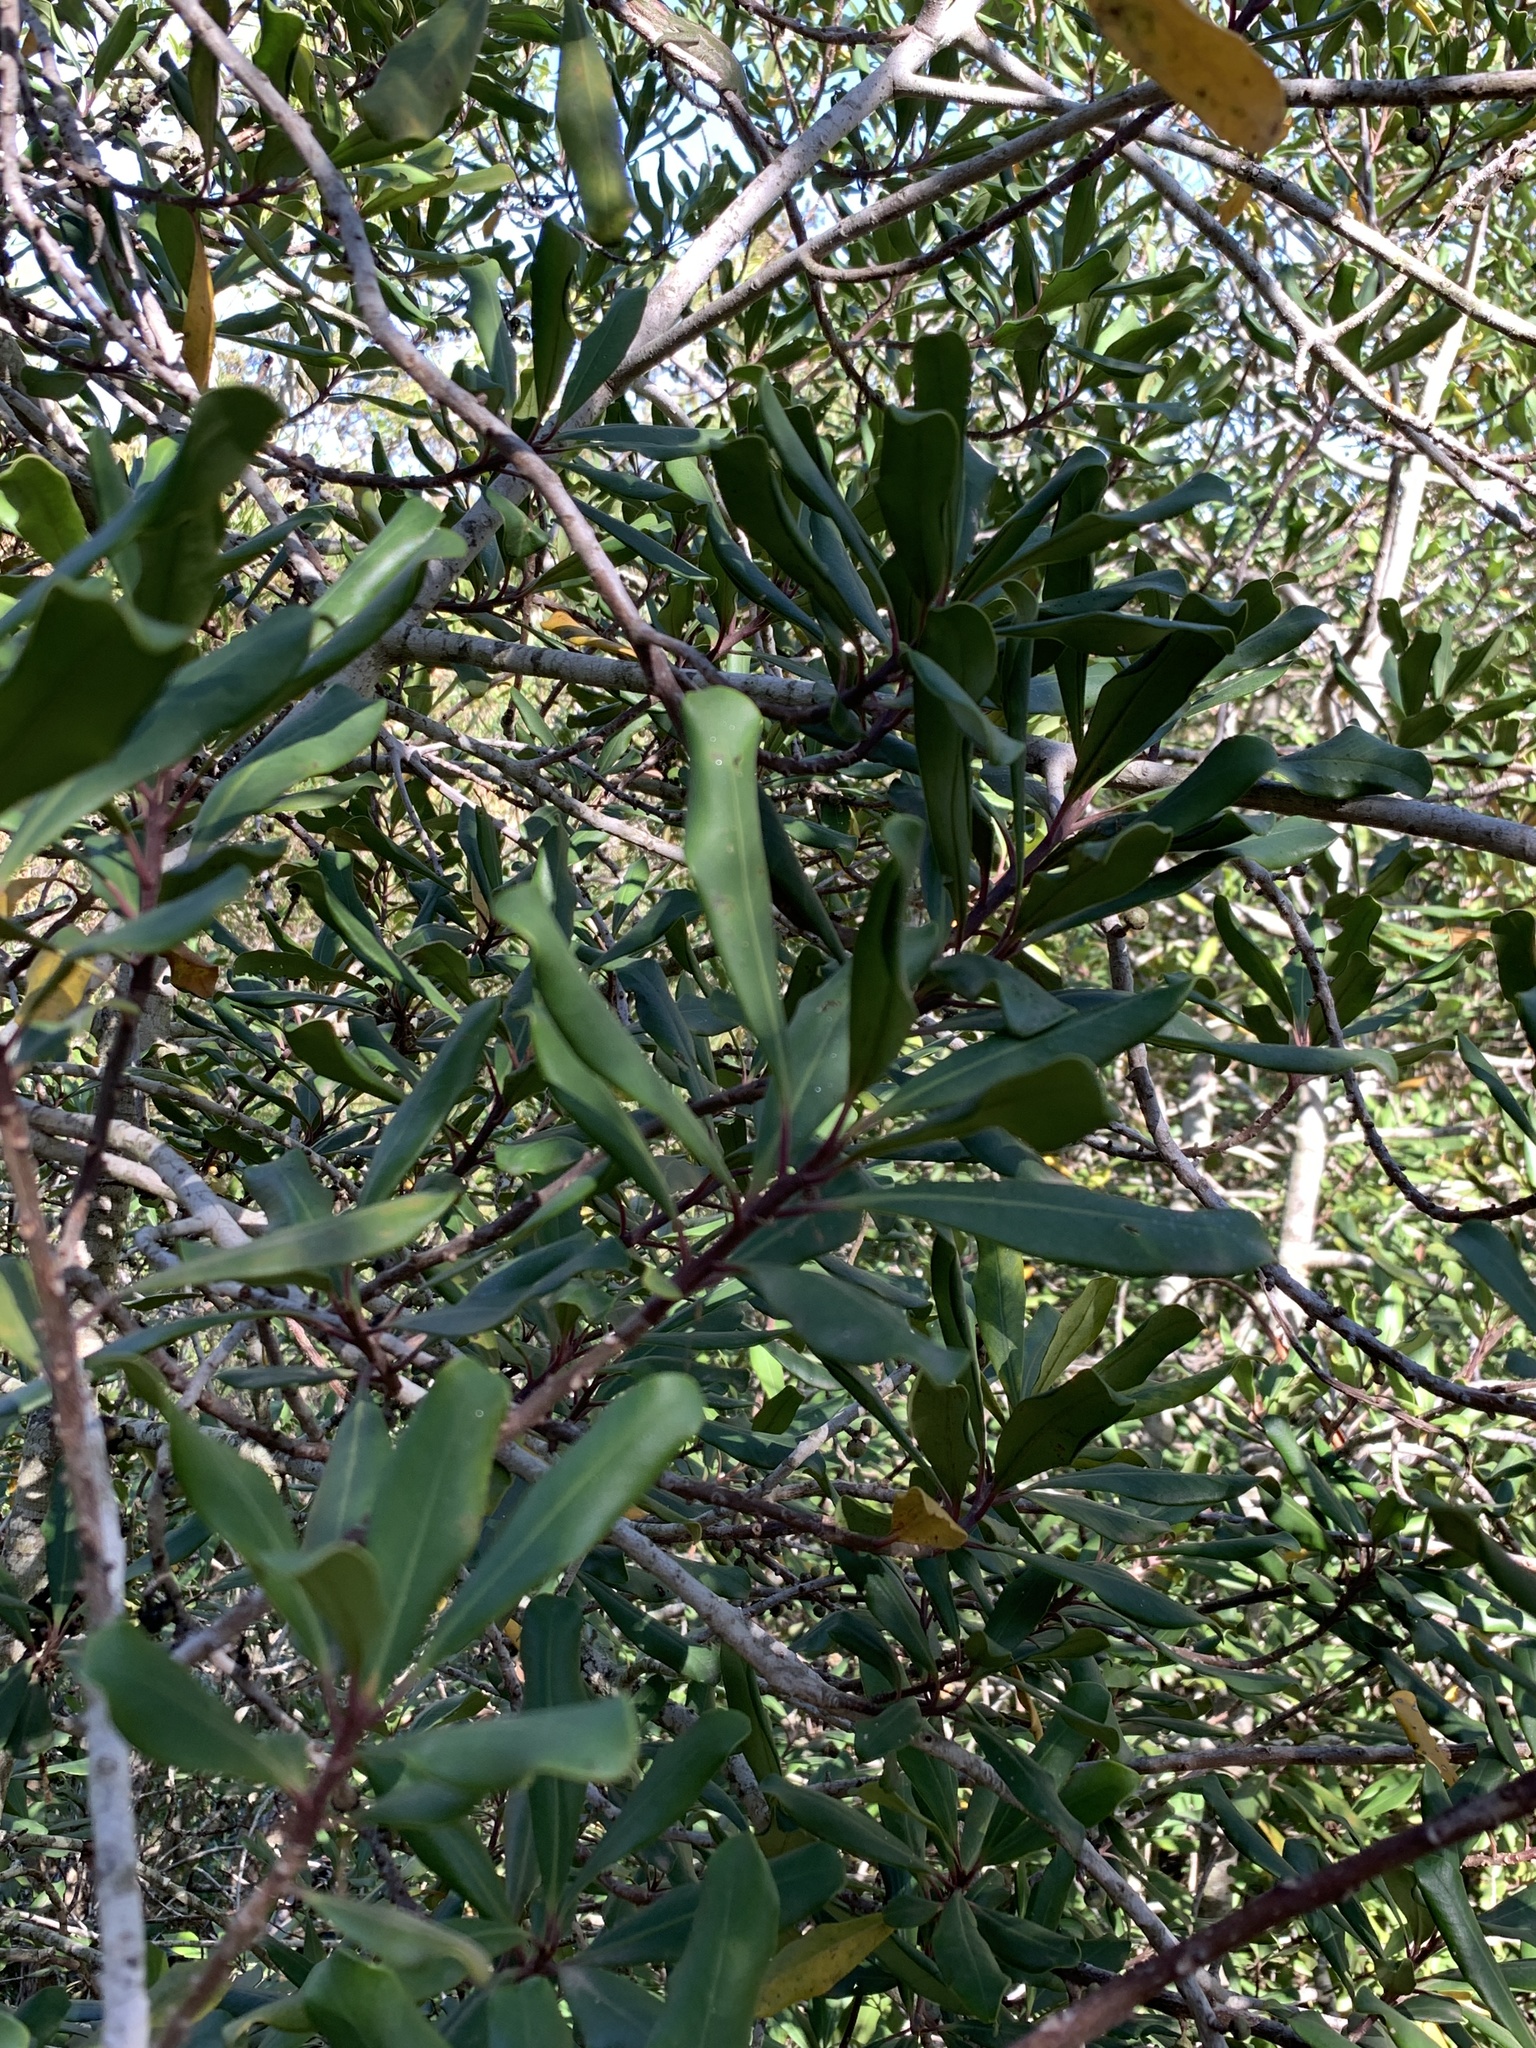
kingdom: Plantae
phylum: Tracheophyta
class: Magnoliopsida
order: Ericales
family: Primulaceae
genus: Myrsine
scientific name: Myrsine melanophloeos
